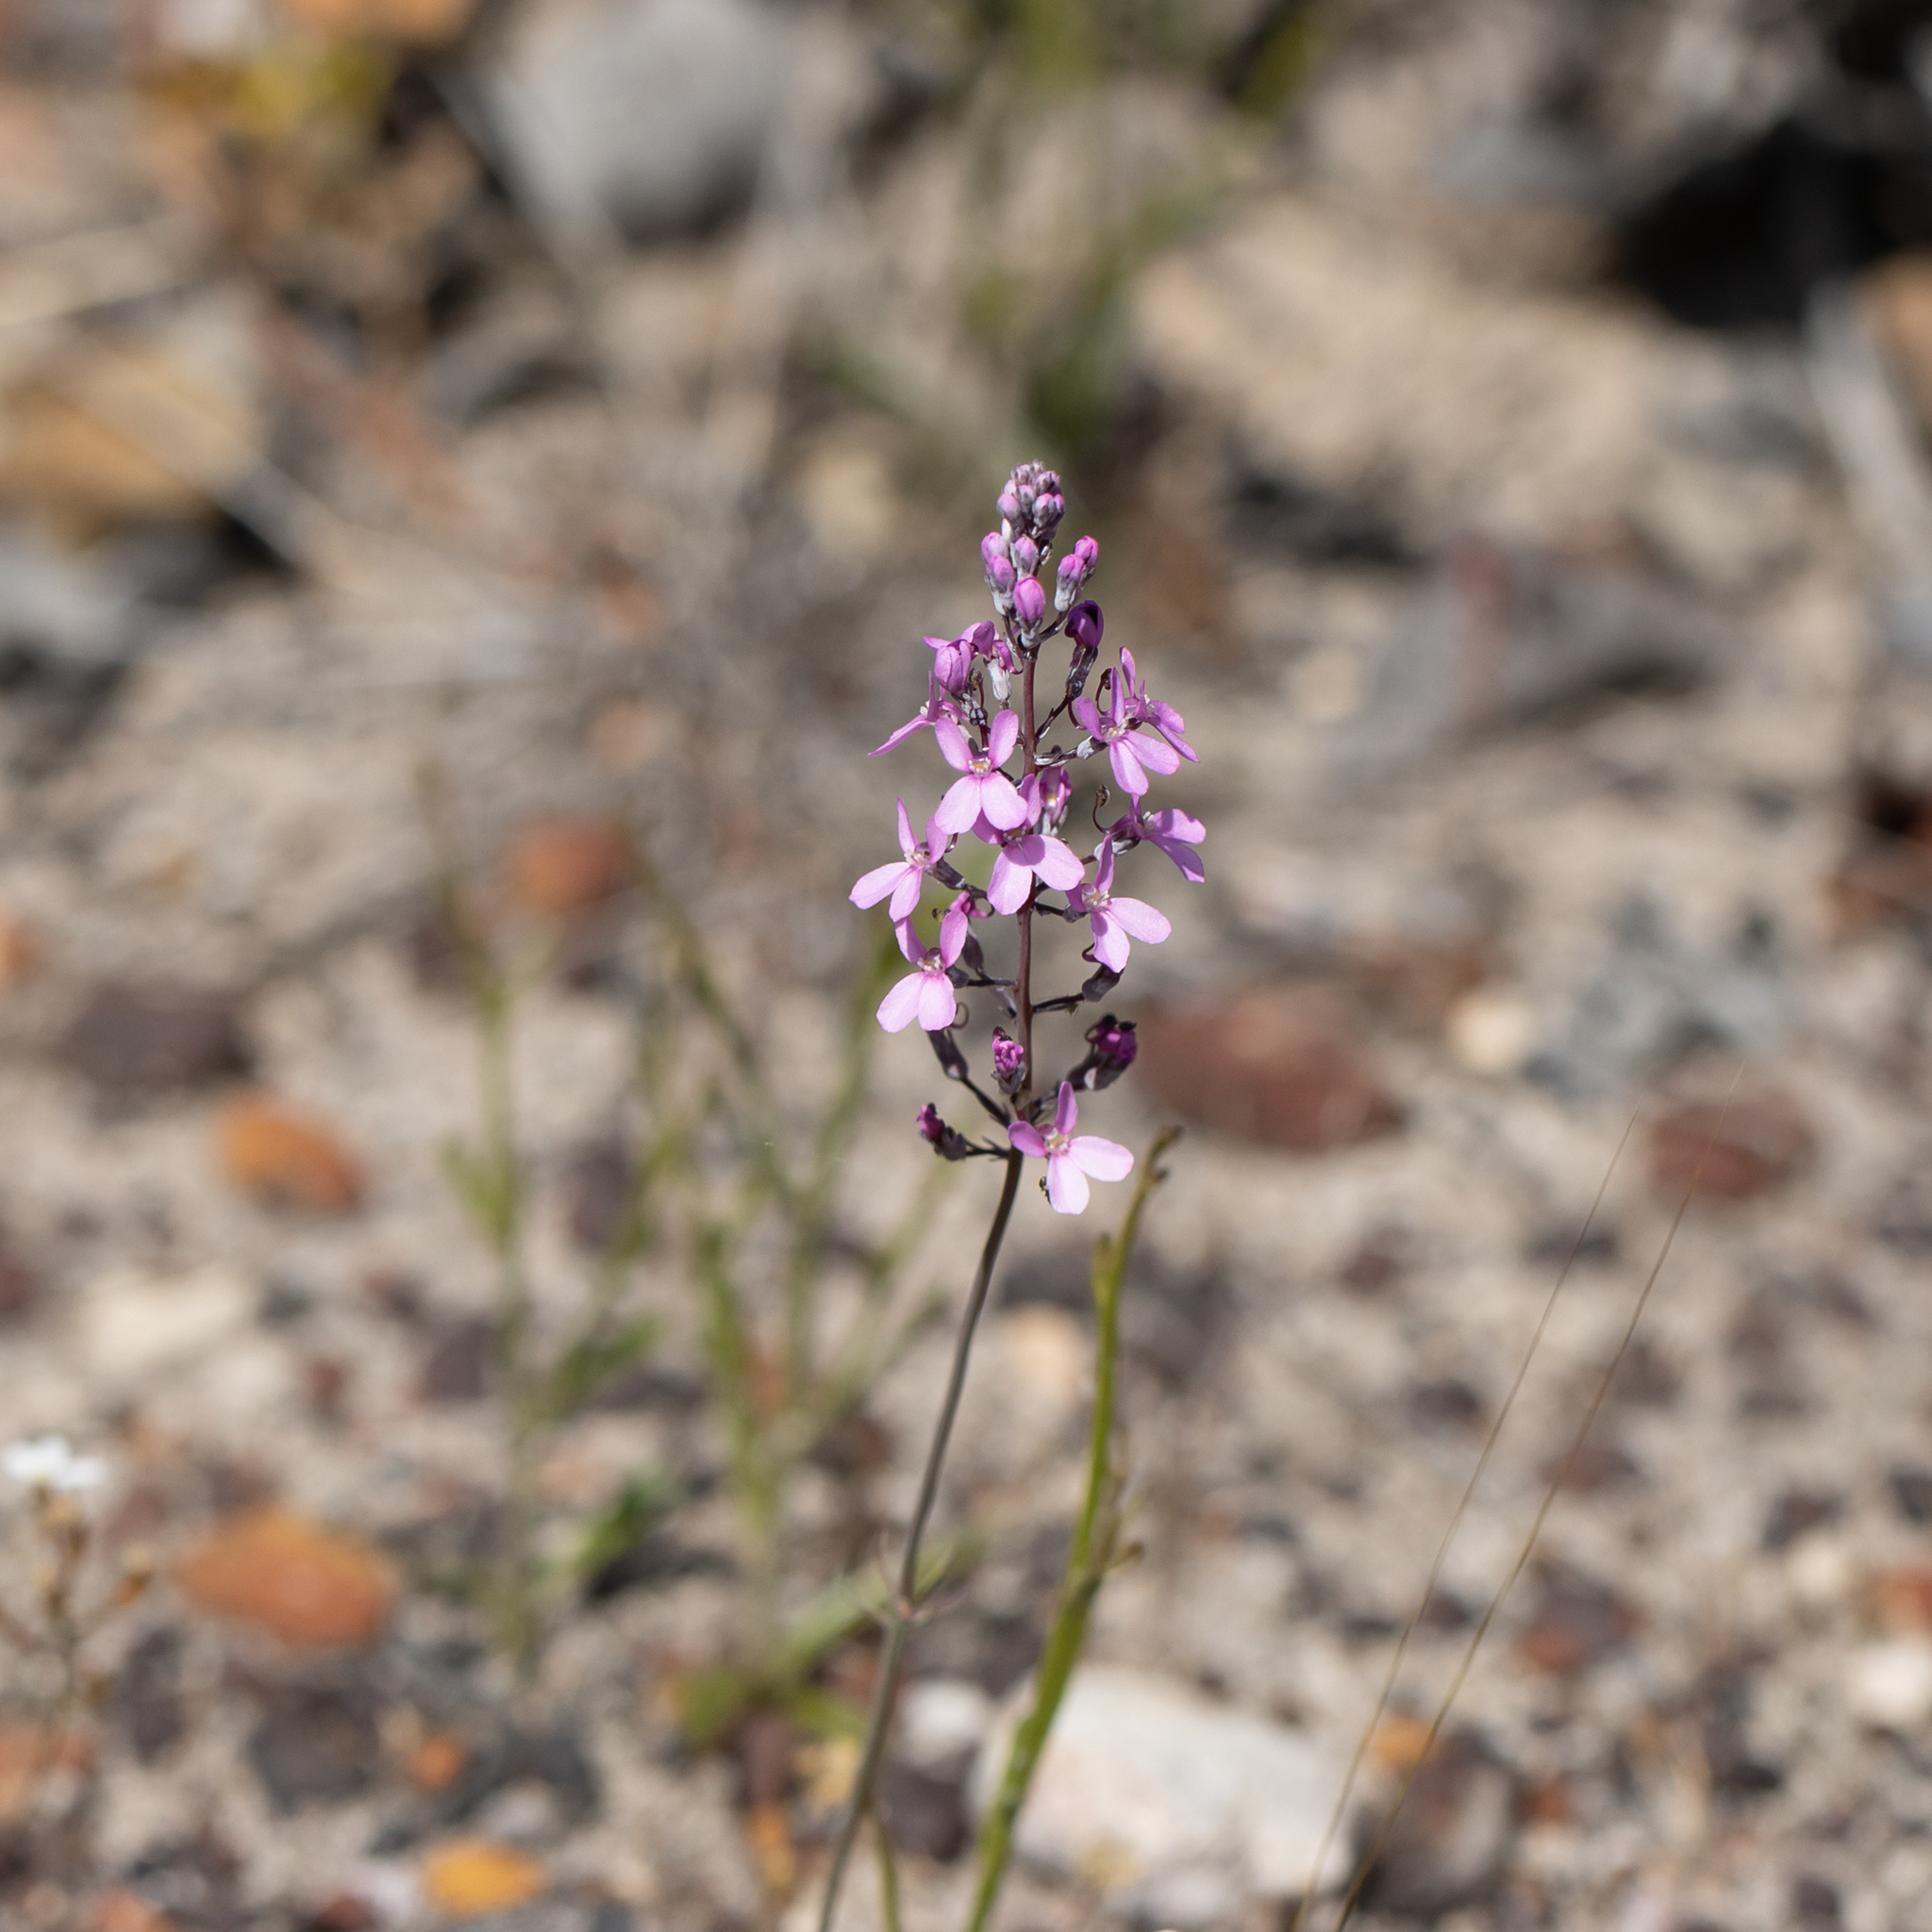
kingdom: Plantae
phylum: Tracheophyta
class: Magnoliopsida
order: Asterales
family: Stylidiaceae
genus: Stylidium
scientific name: Stylidium tenue
